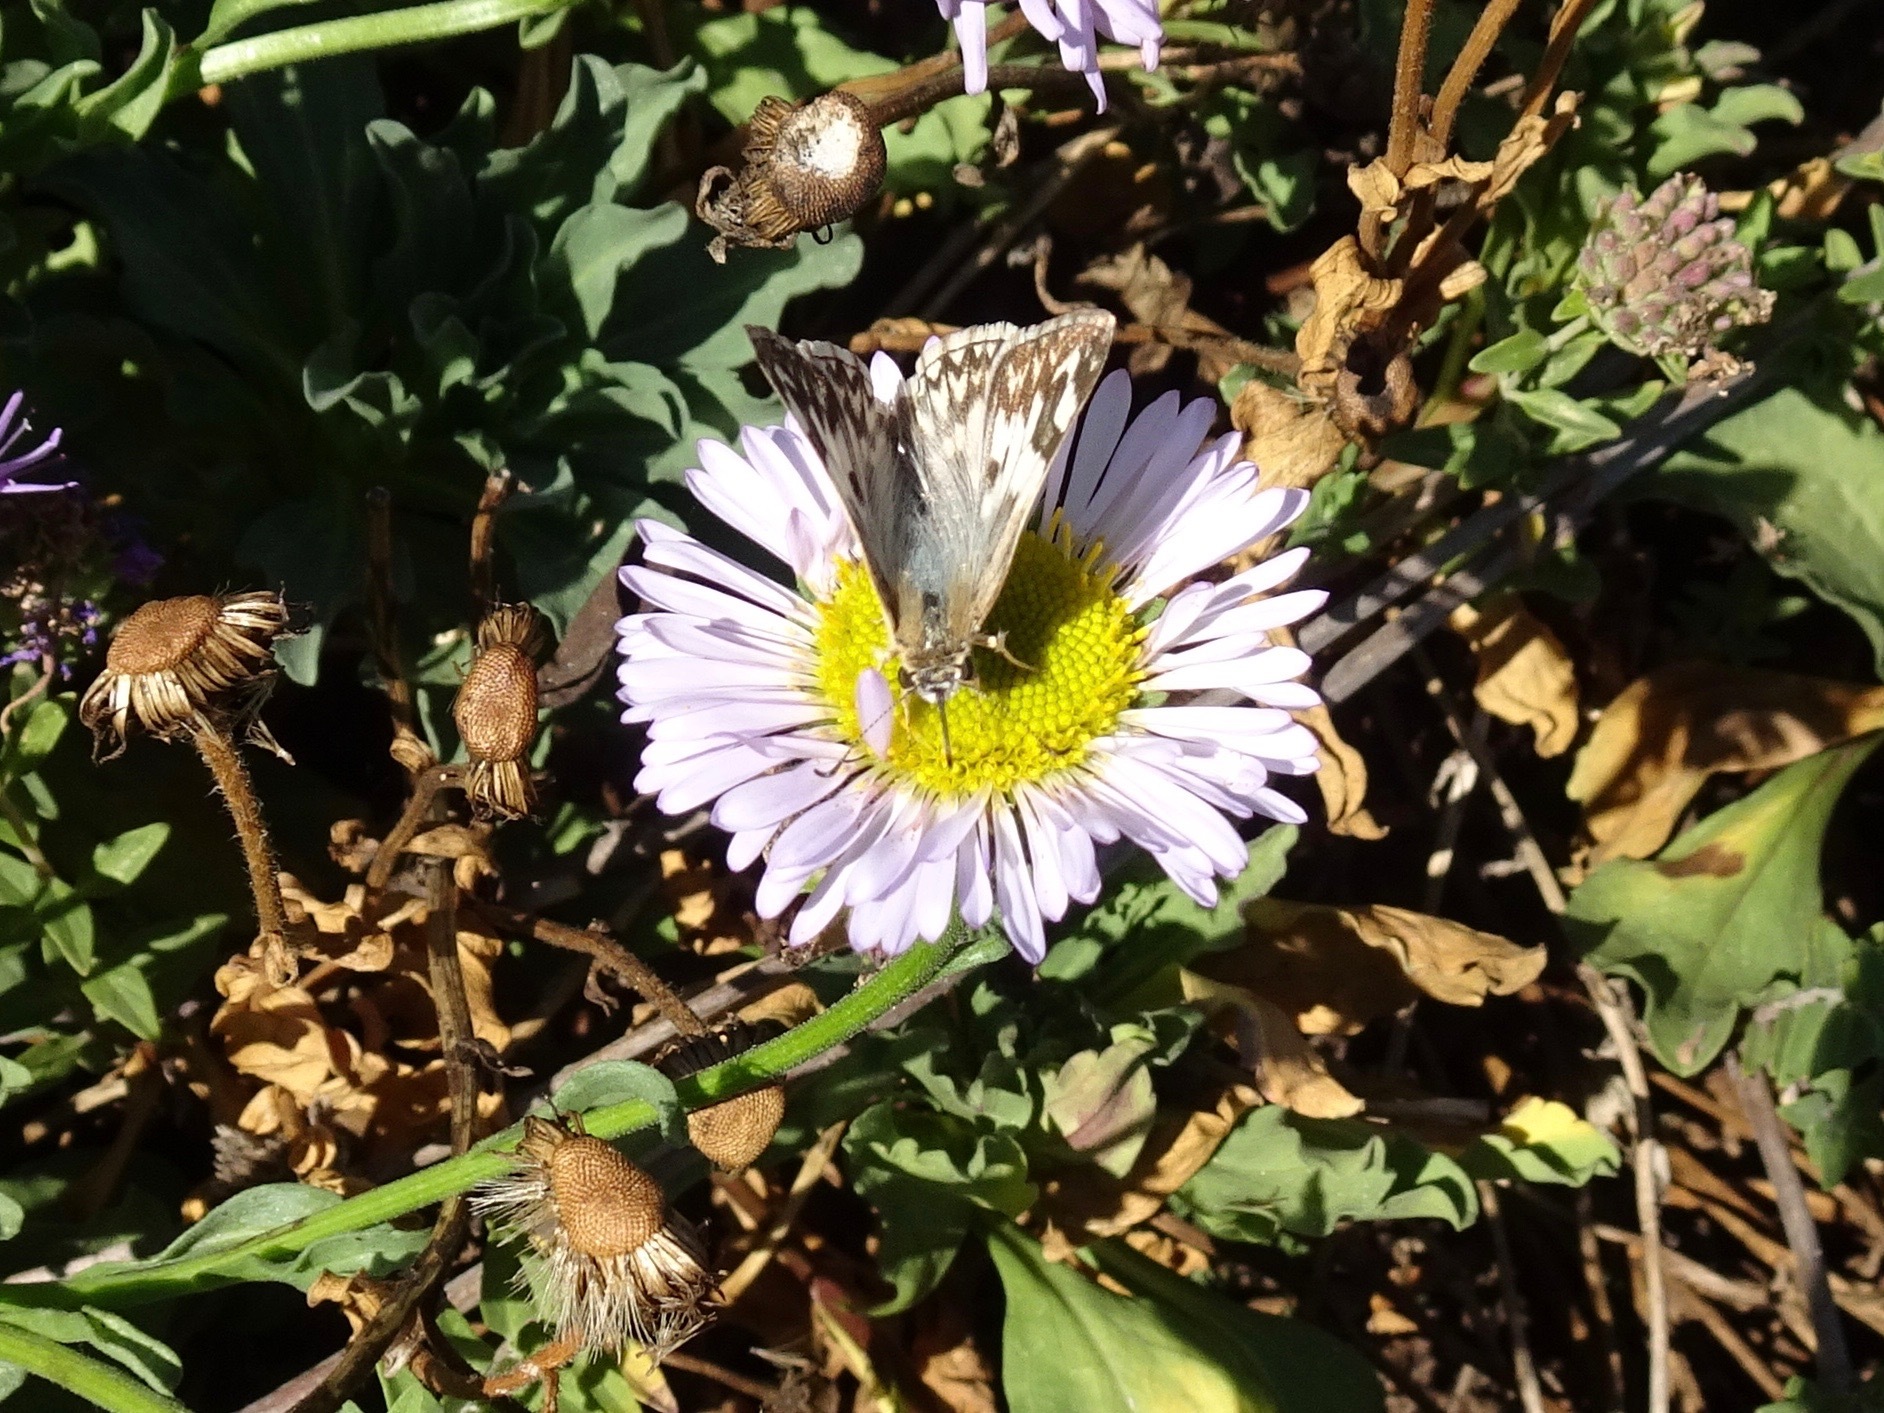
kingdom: Animalia
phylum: Arthropoda
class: Insecta
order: Lepidoptera
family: Hesperiidae
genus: Heliopetes
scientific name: Heliopetes ericetorum
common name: Northern white-skipper
